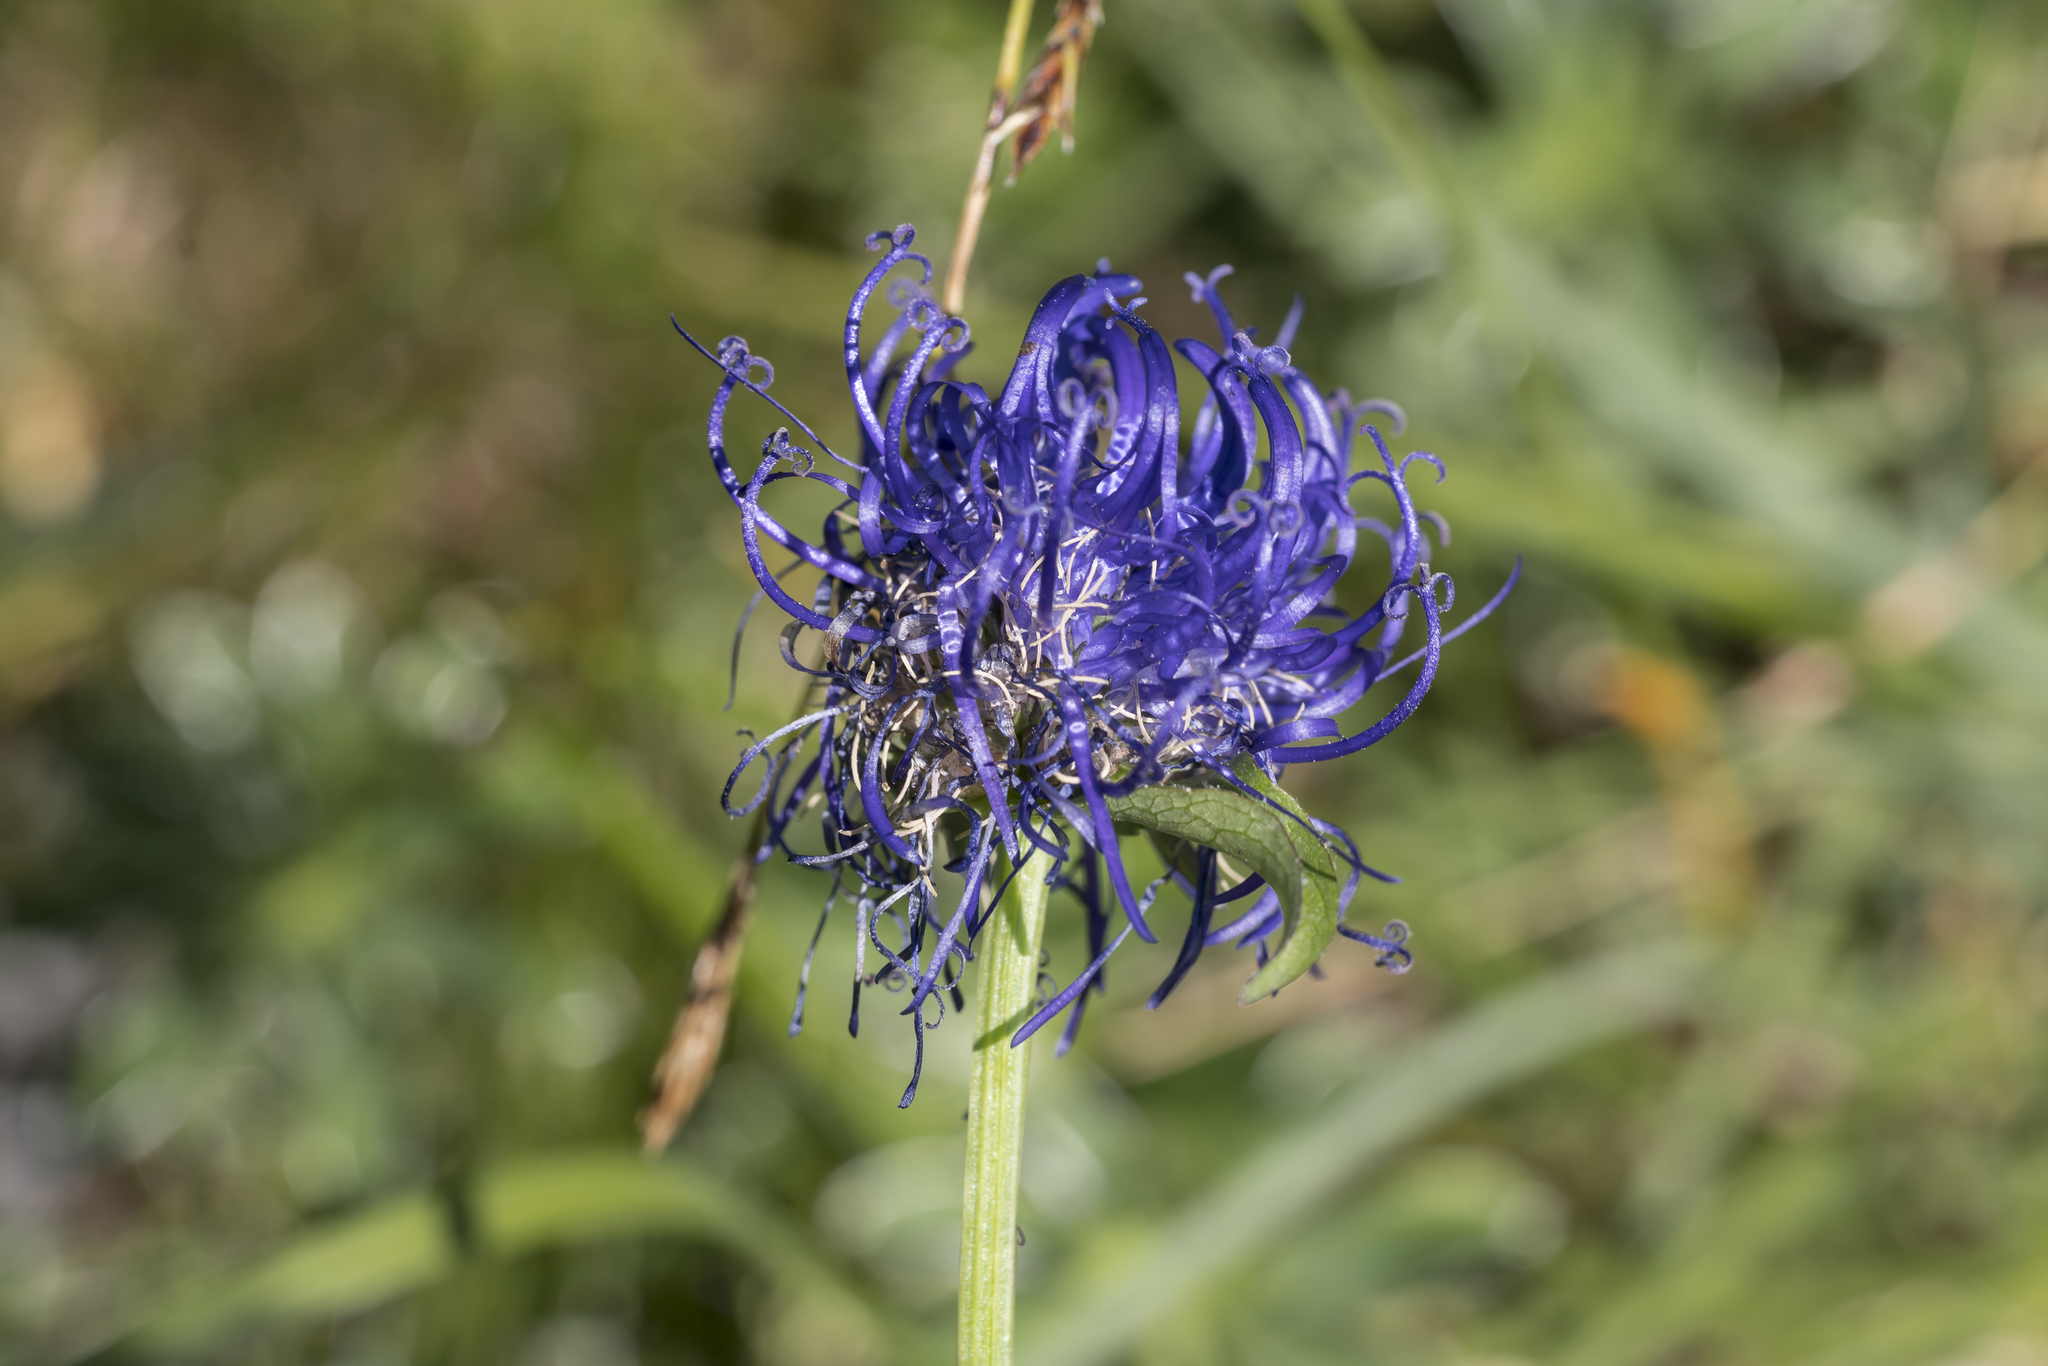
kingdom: Plantae
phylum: Tracheophyta
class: Magnoliopsida
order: Asterales
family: Campanulaceae
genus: Phyteuma
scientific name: Phyteuma orbiculare
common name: Round-headed rampion
